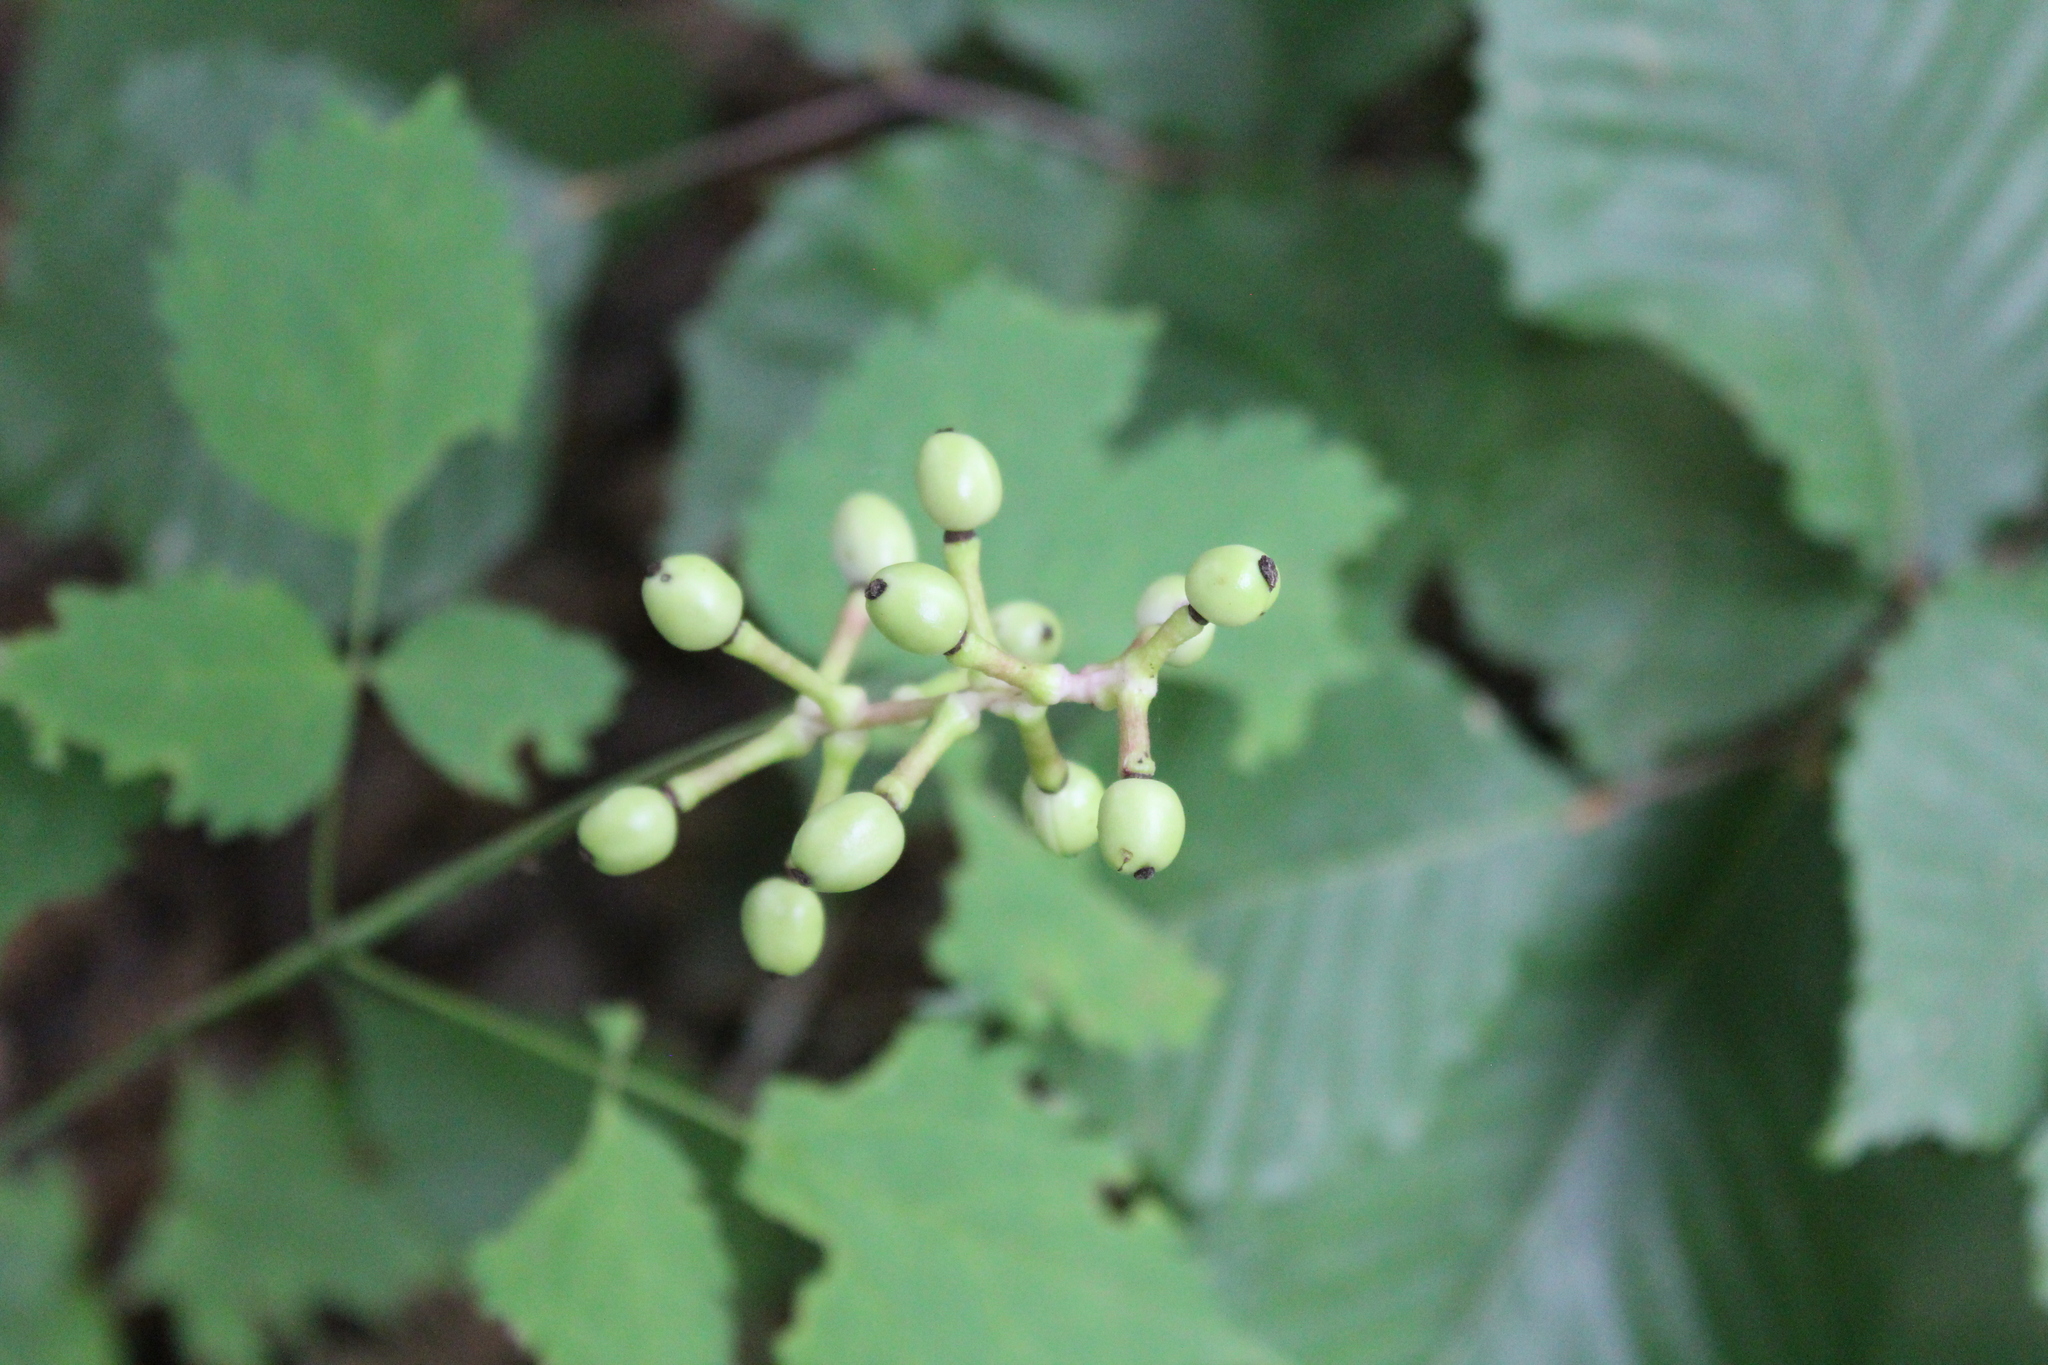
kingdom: Plantae
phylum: Tracheophyta
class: Magnoliopsida
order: Ranunculales
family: Ranunculaceae
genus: Actaea
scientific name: Actaea pachypoda
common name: Doll's-eyes
